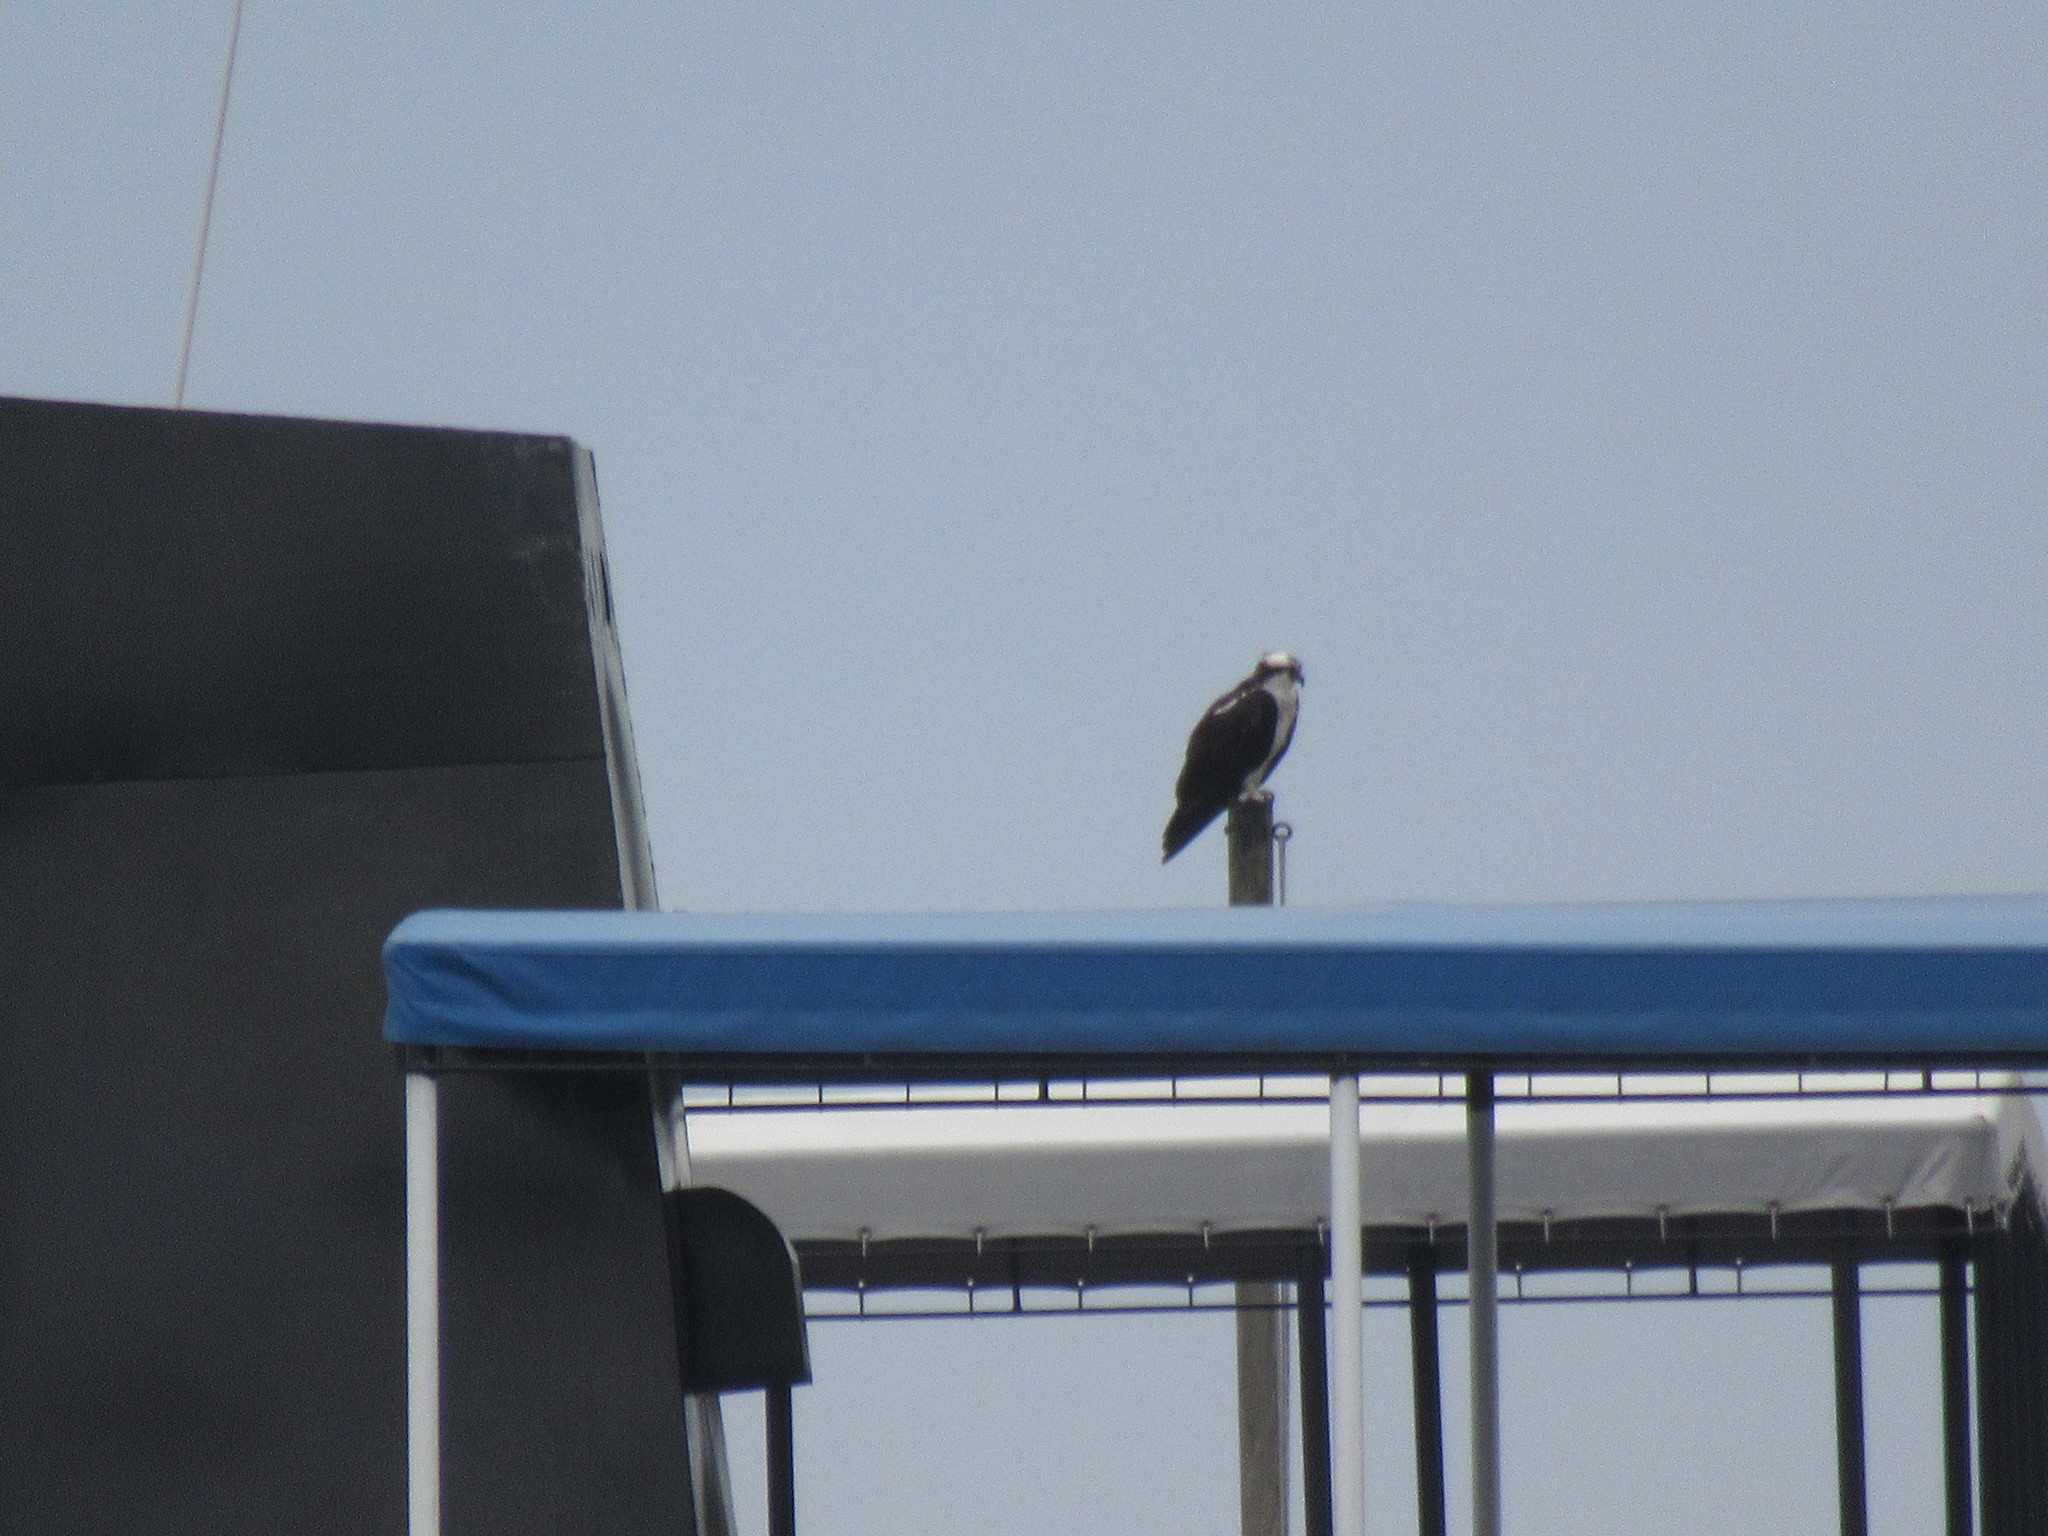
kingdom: Animalia
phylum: Chordata
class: Aves
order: Accipitriformes
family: Pandionidae
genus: Pandion
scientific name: Pandion haliaetus
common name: Osprey
